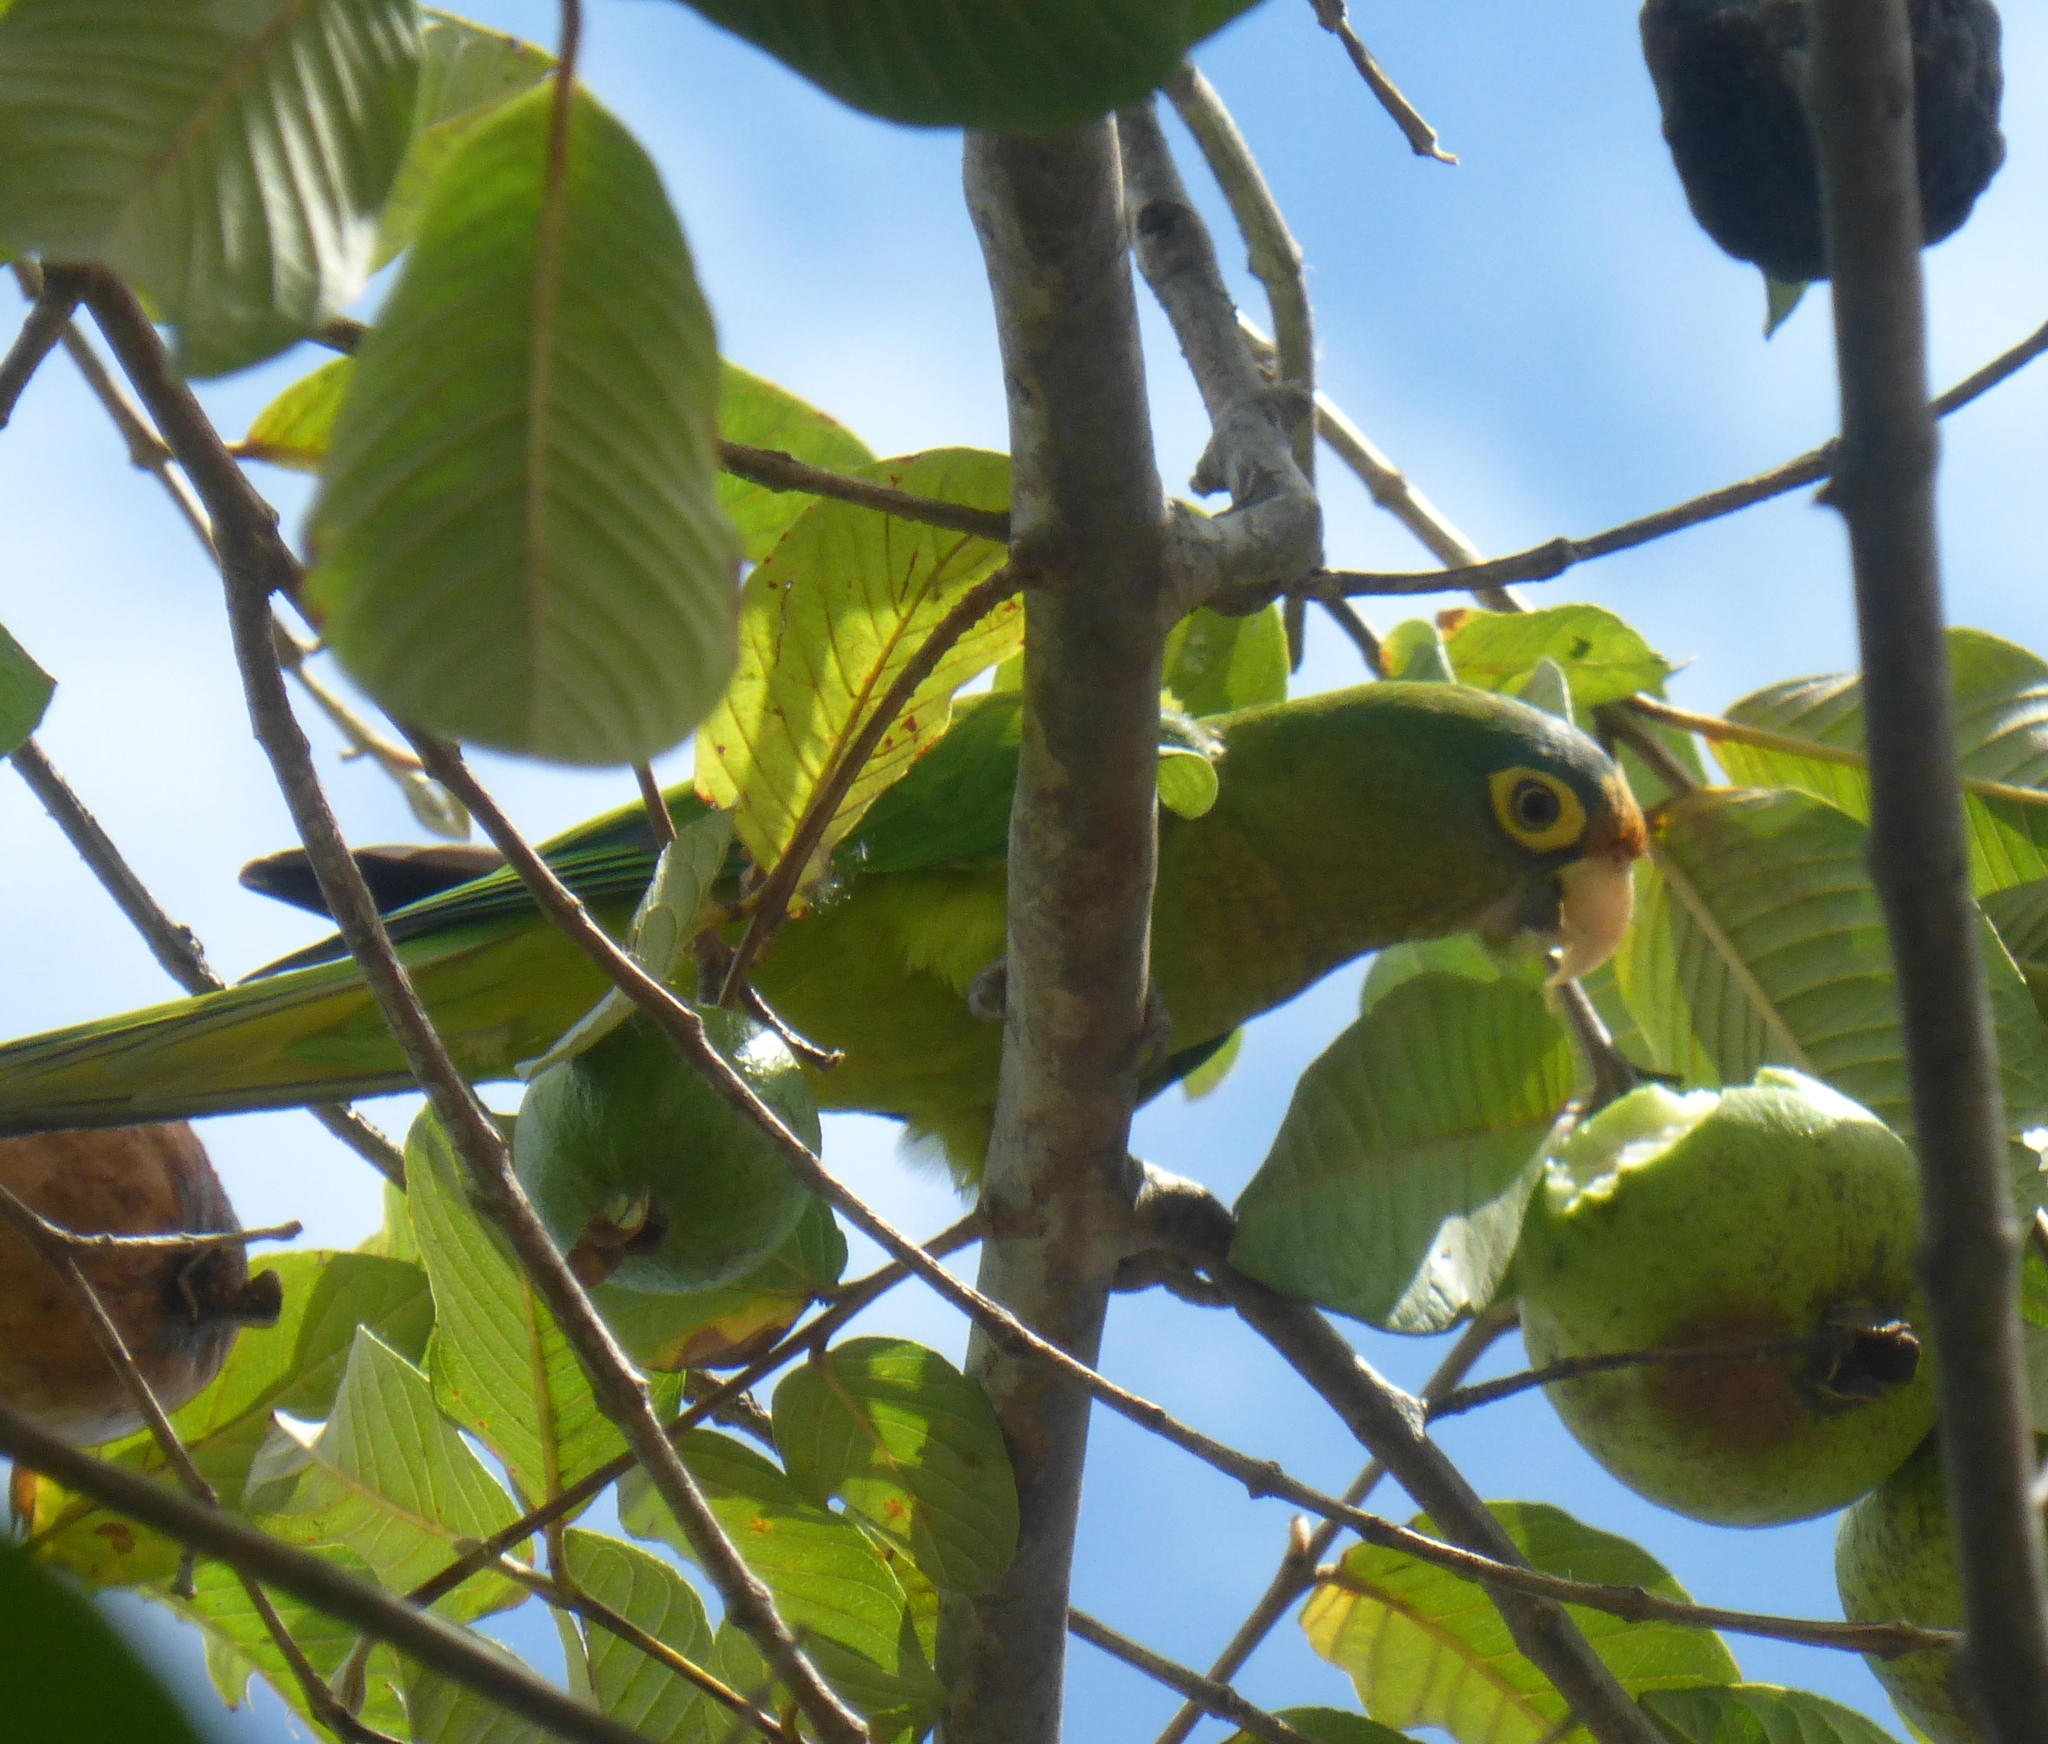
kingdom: Animalia
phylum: Chordata
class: Aves
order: Psittaciformes
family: Psittacidae
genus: Aratinga
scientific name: Aratinga canicularis
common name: Orange-fronted parakeet
